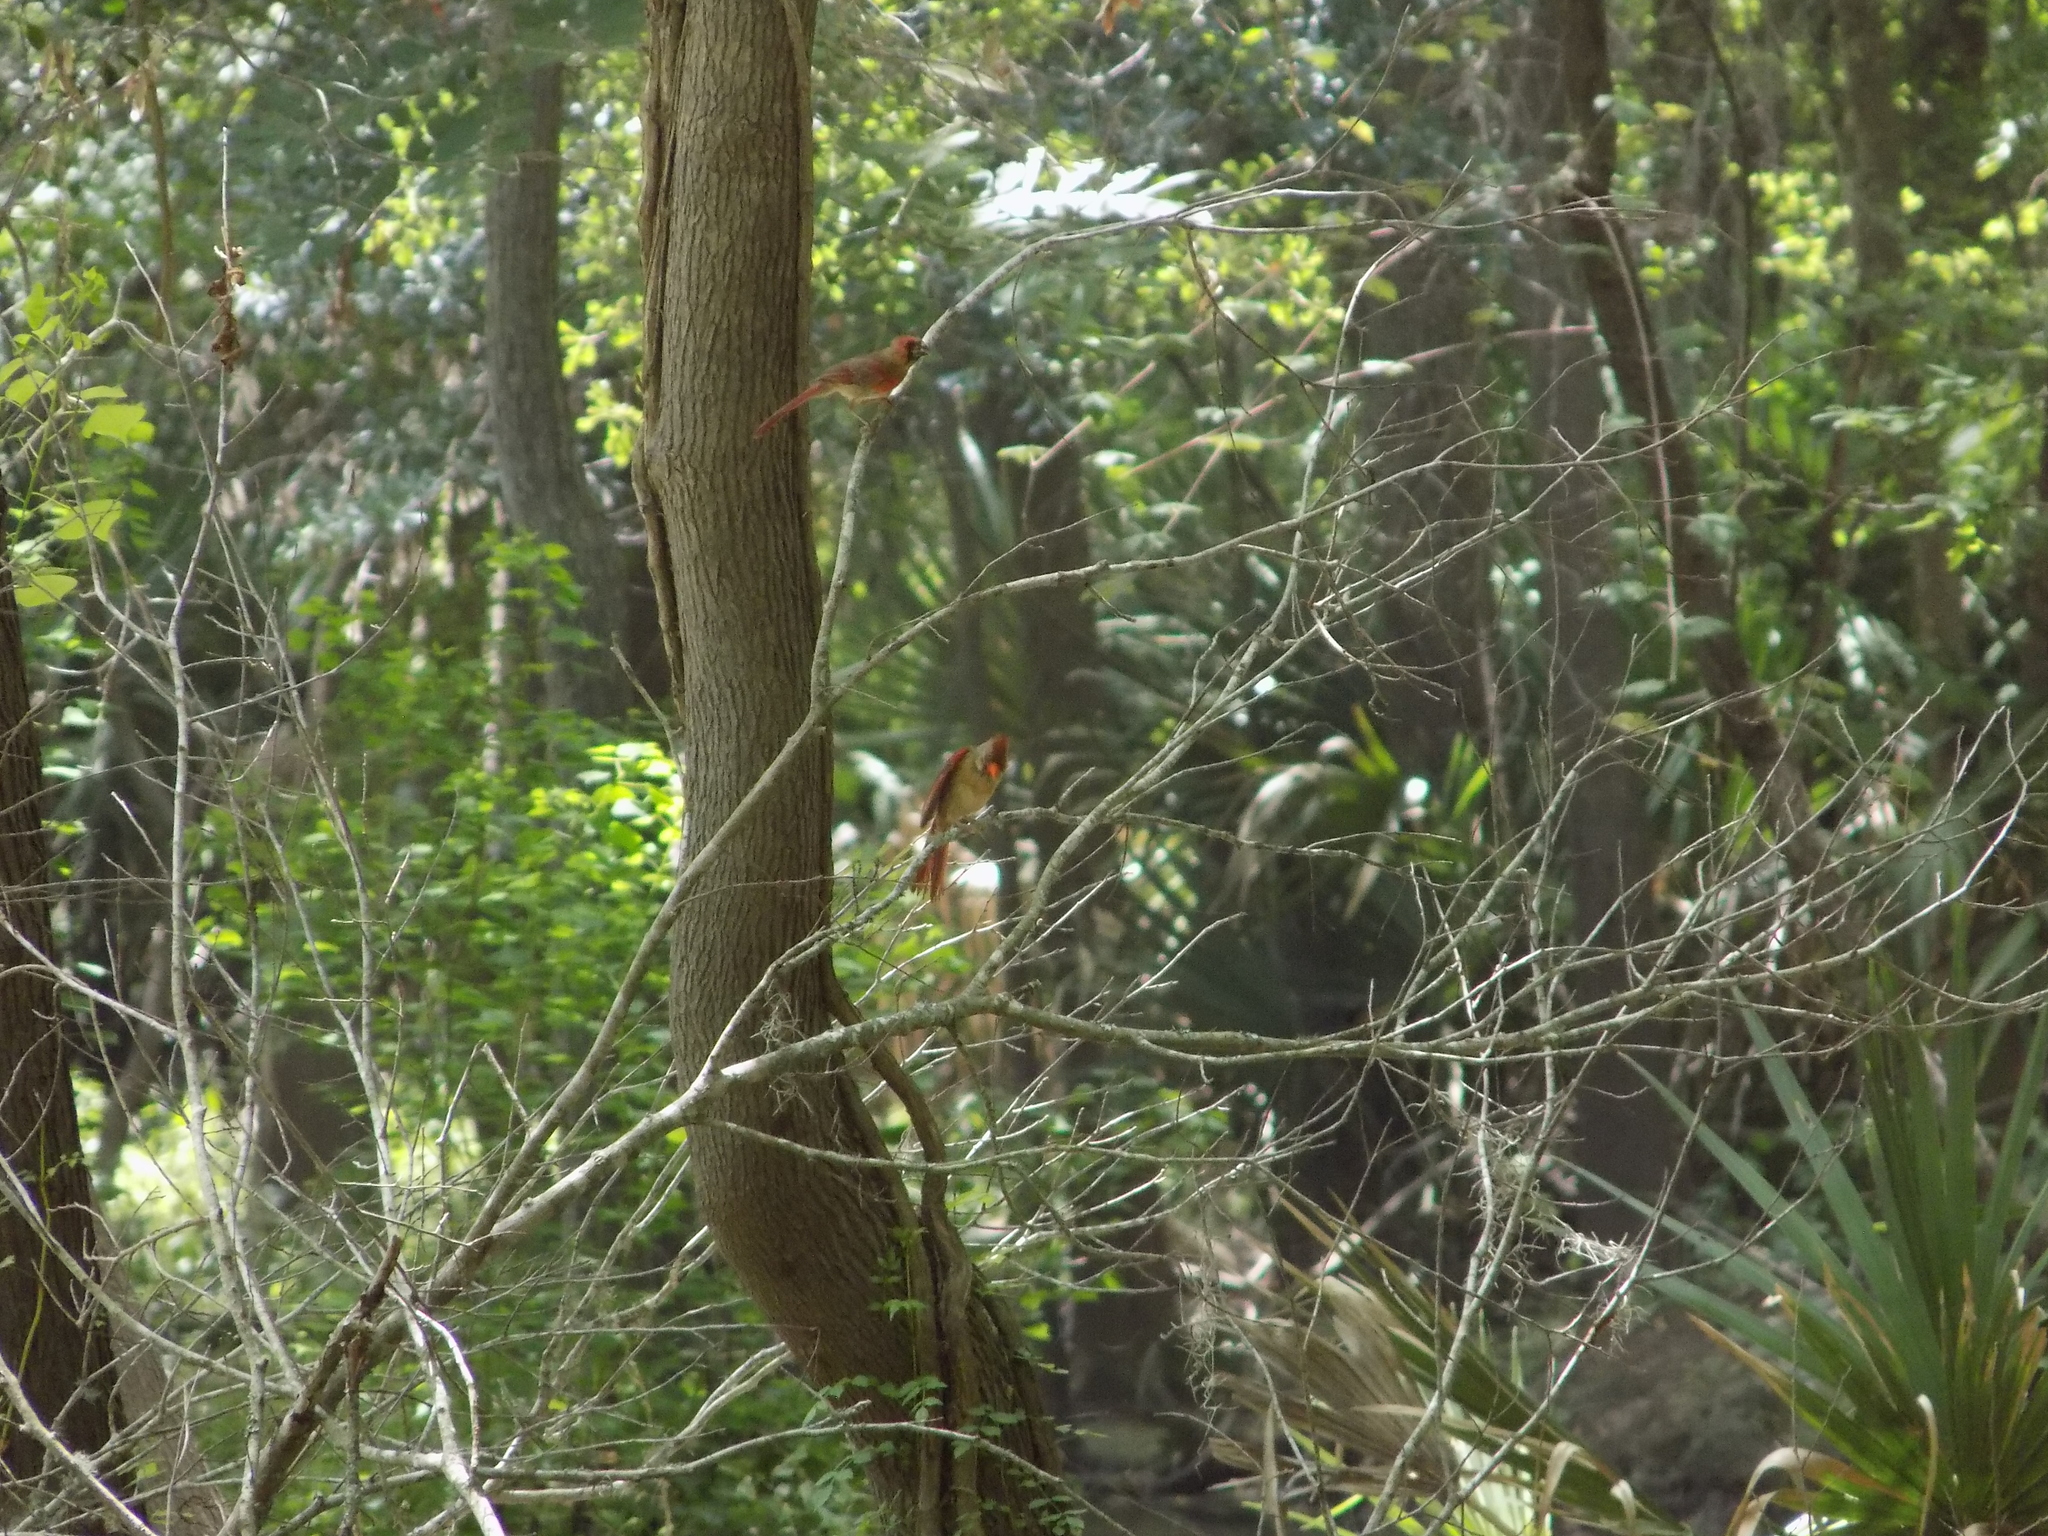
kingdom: Animalia
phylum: Chordata
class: Aves
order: Passeriformes
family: Cardinalidae
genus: Cardinalis
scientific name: Cardinalis cardinalis
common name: Northern cardinal
